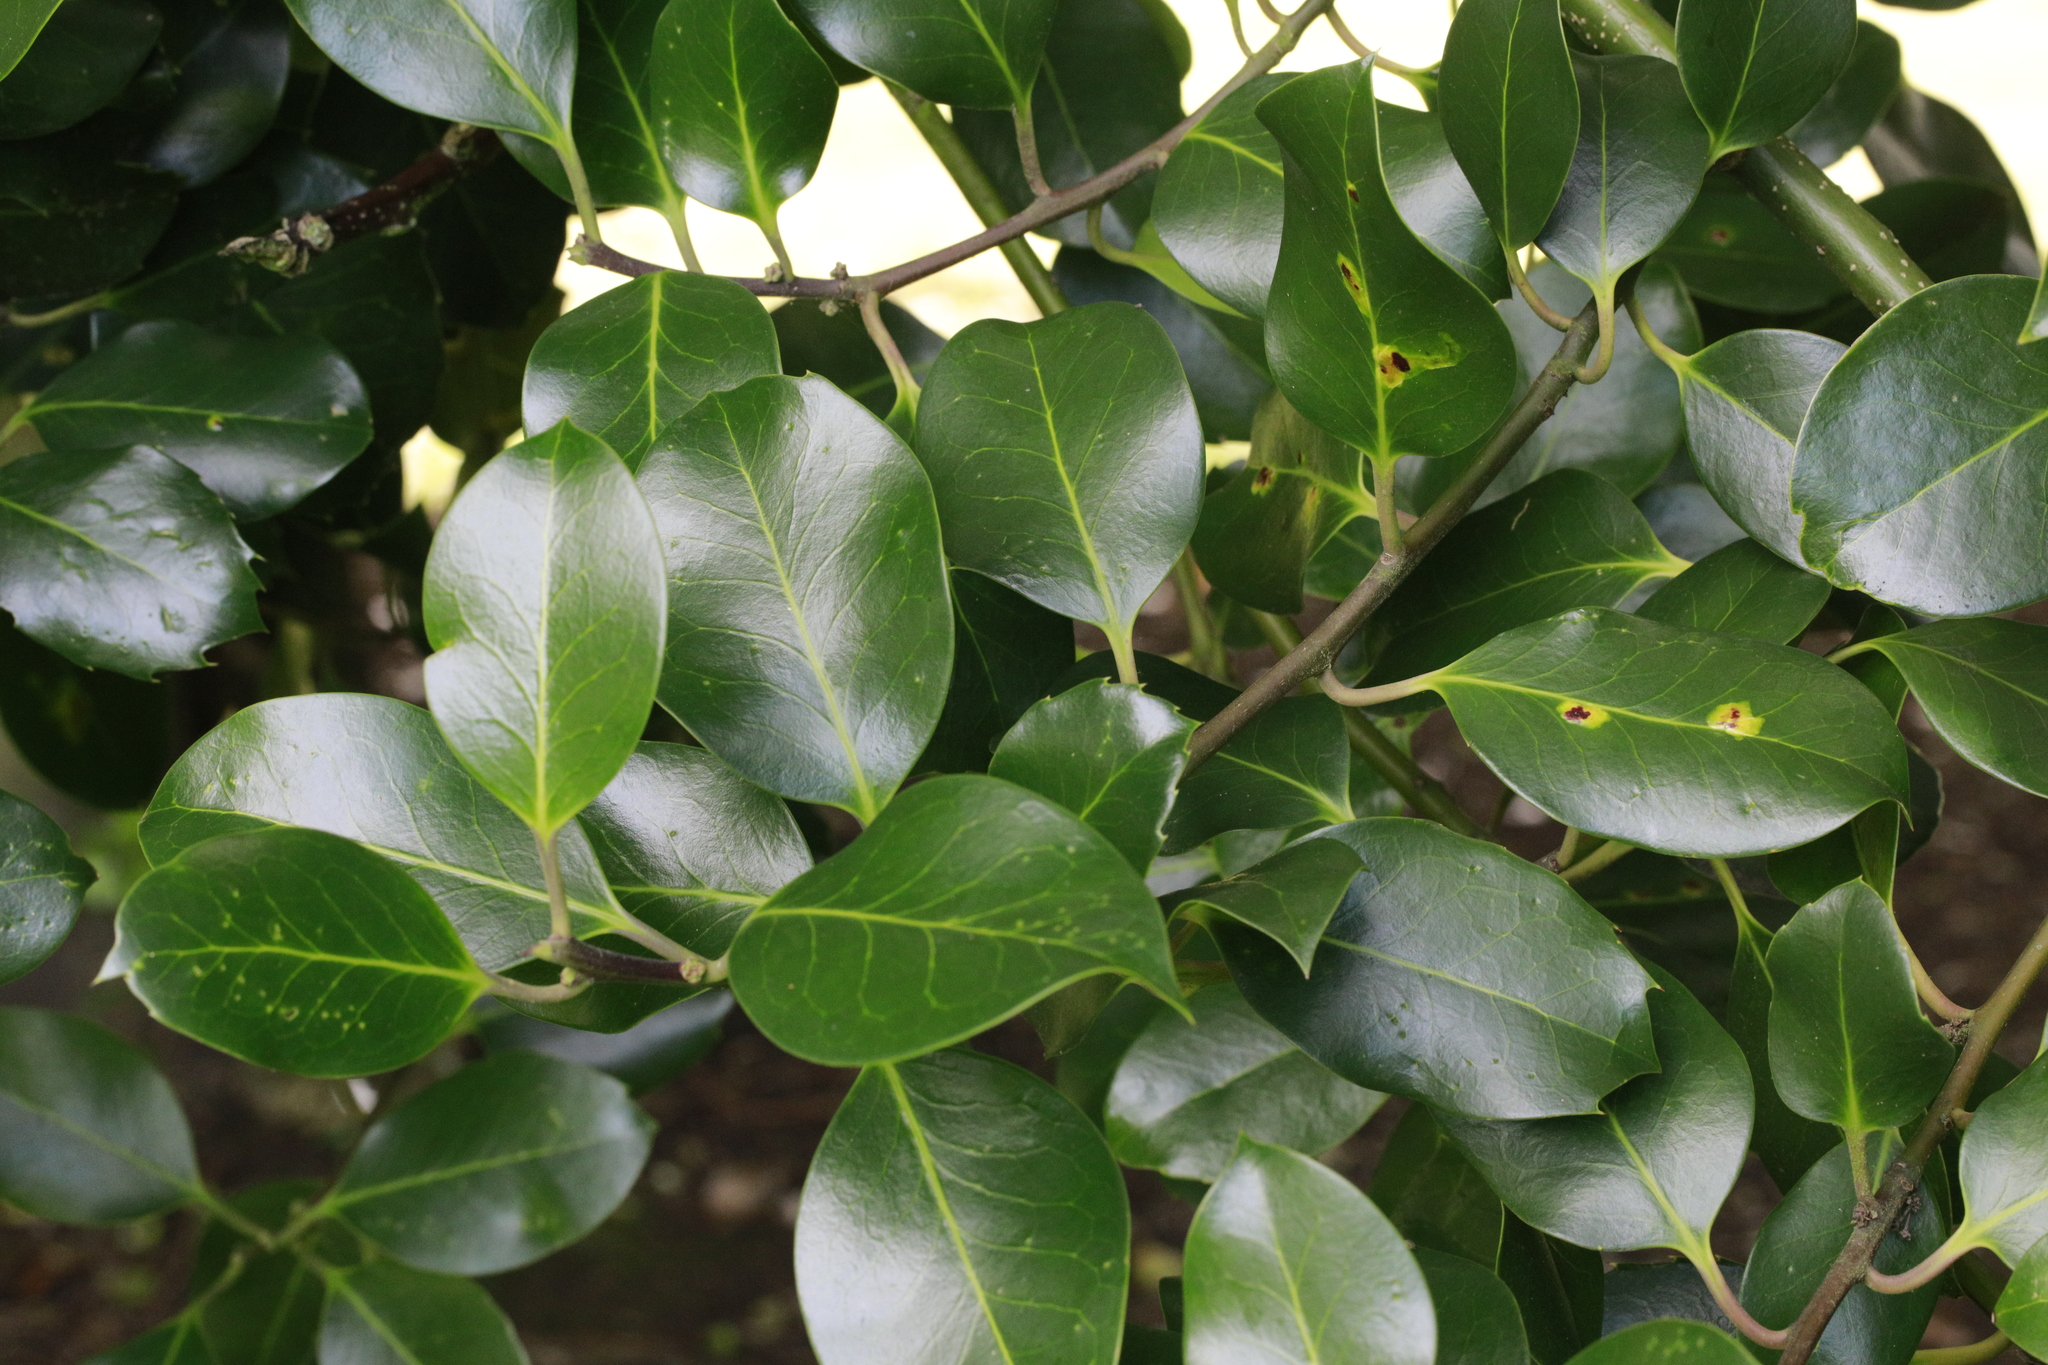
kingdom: Plantae
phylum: Tracheophyta
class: Magnoliopsida
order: Aquifoliales
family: Aquifoliaceae
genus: Ilex
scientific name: Ilex altaclerensis
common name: Highclere holly
